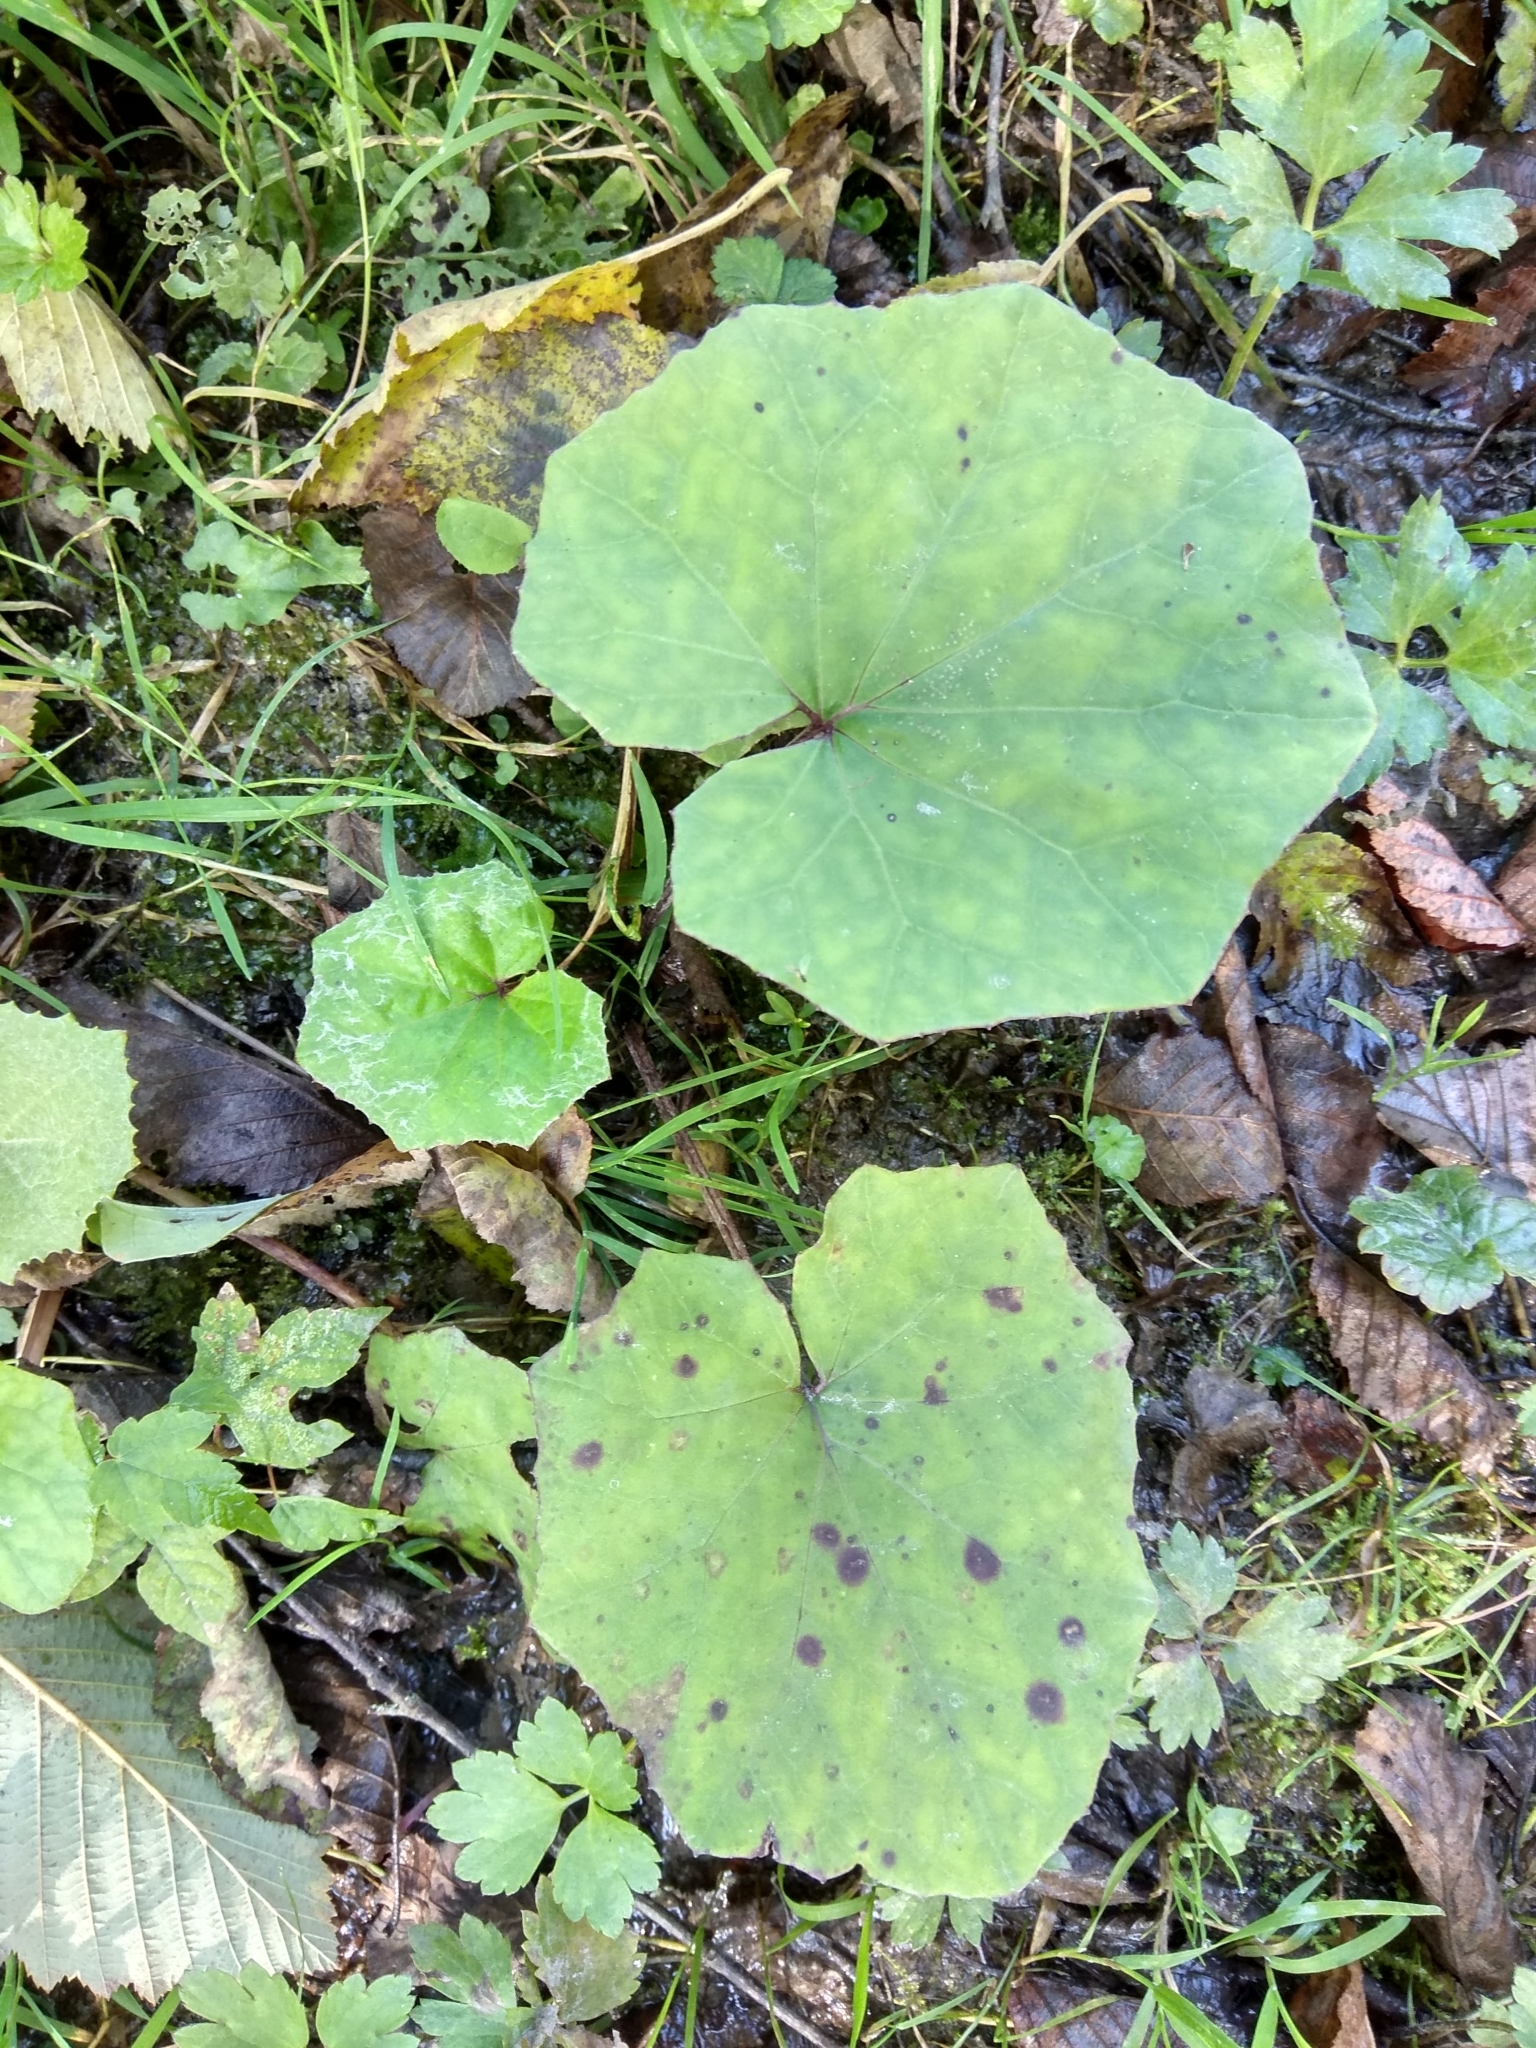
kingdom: Plantae
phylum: Tracheophyta
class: Magnoliopsida
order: Asterales
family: Asteraceae
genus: Tussilago
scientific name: Tussilago farfara
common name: Coltsfoot
